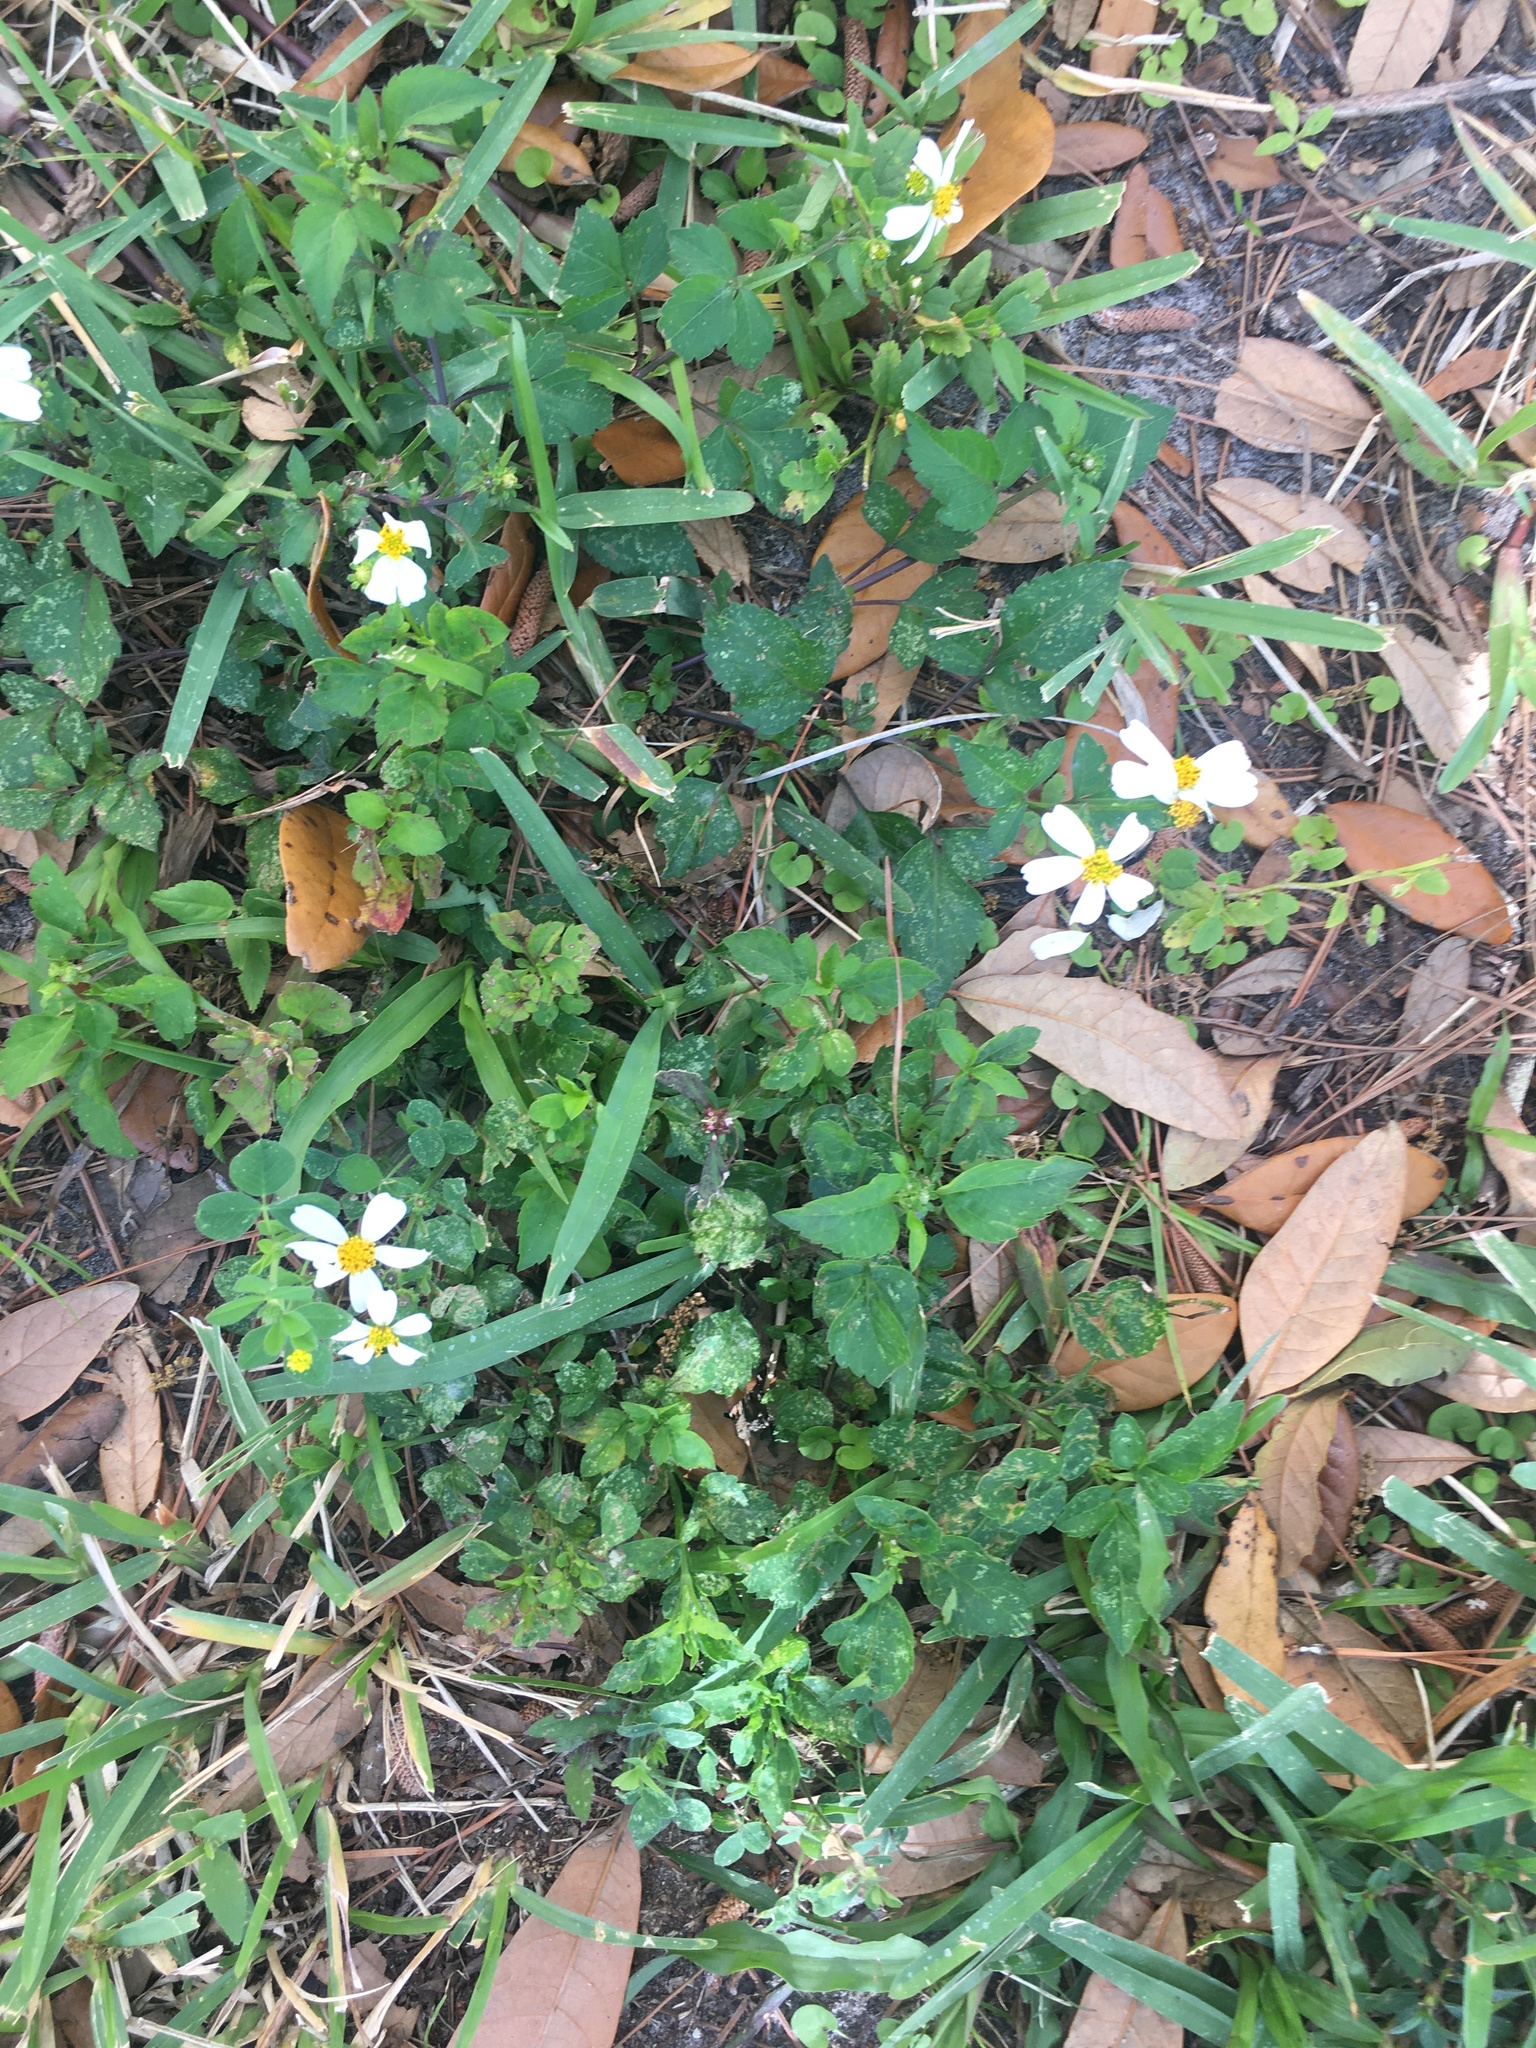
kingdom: Plantae
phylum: Tracheophyta
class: Magnoliopsida
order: Asterales
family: Asteraceae
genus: Bidens
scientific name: Bidens alba
